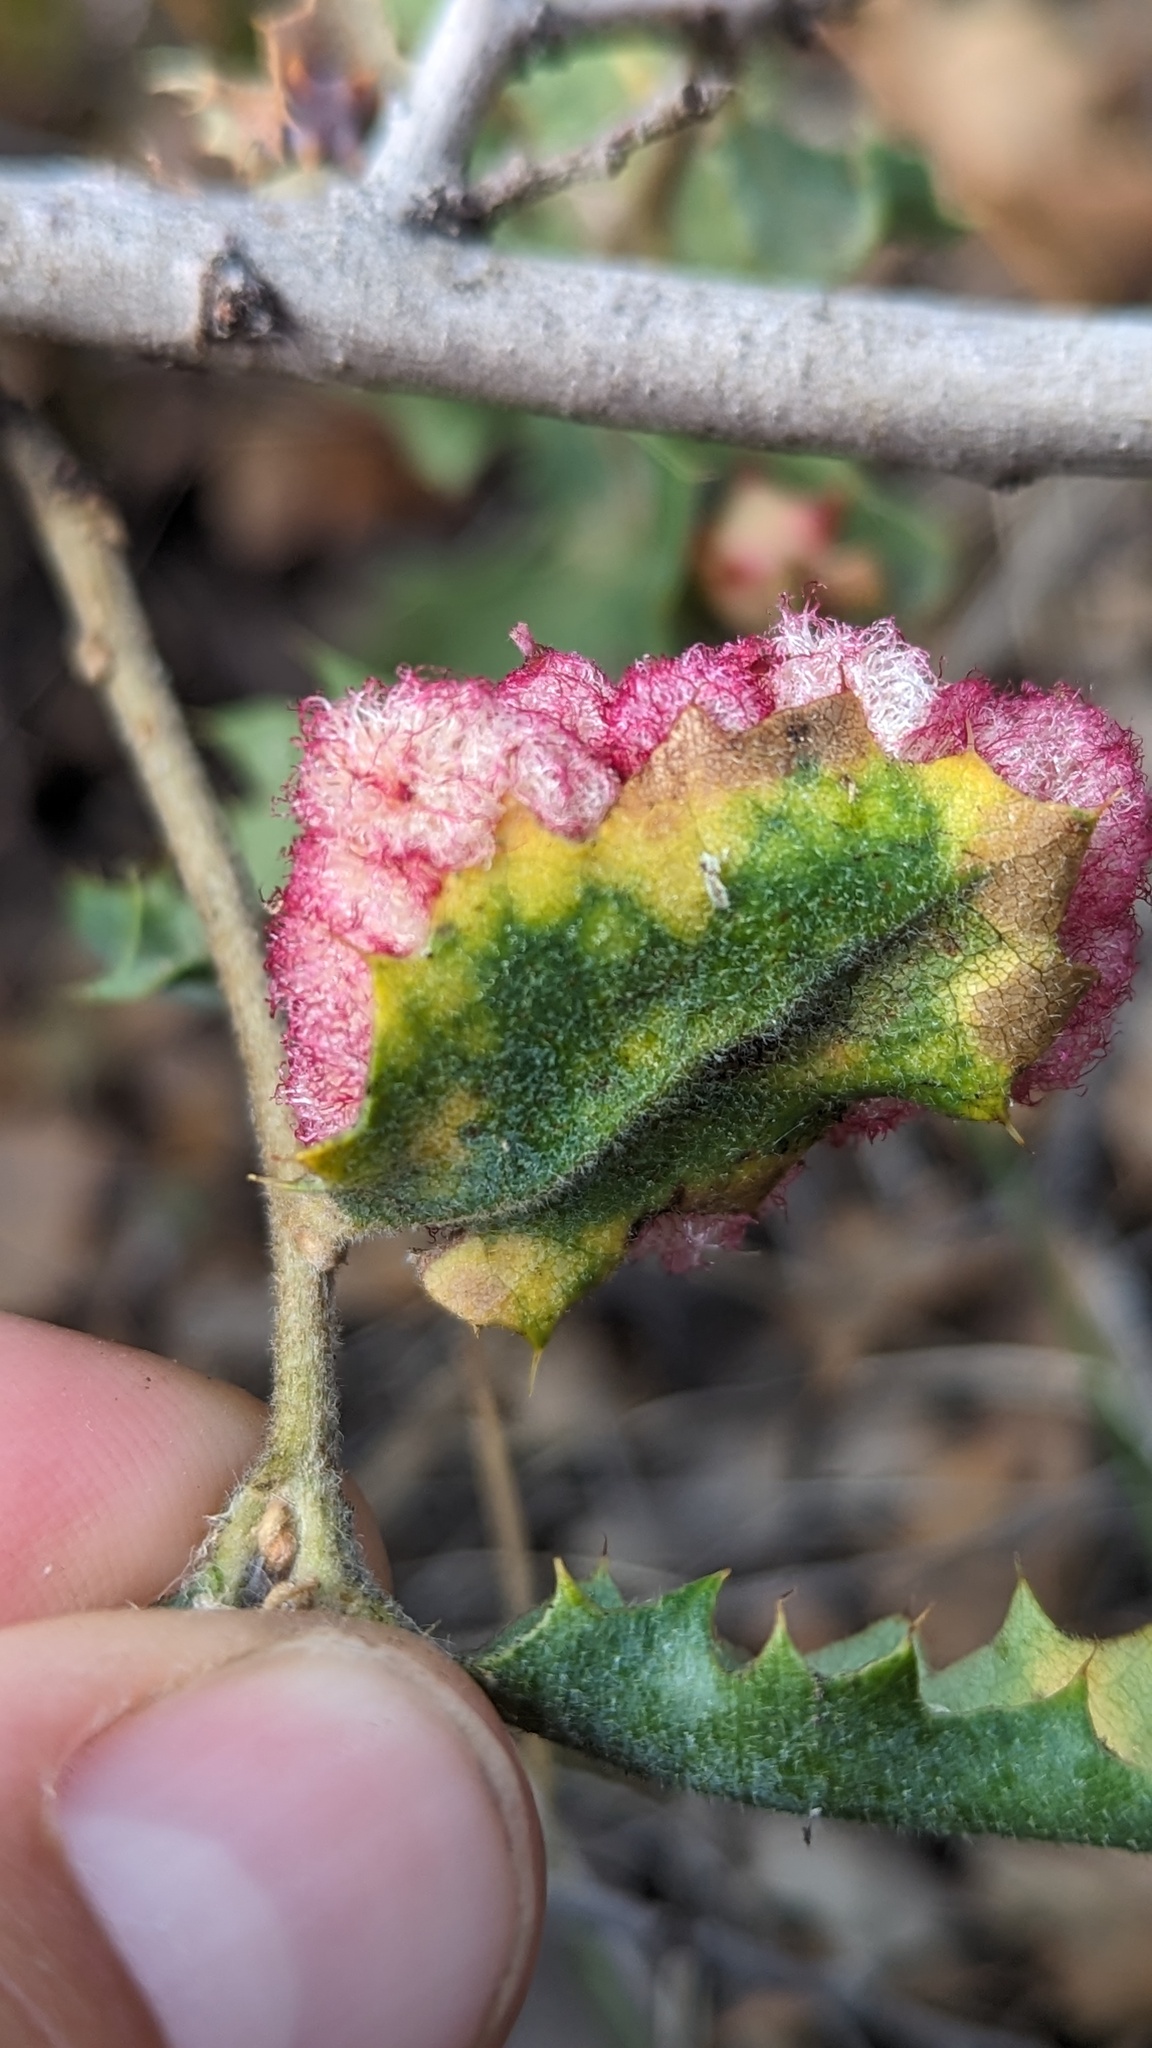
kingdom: Animalia
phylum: Arthropoda
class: Insecta
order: Hymenoptera
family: Cynipidae
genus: Andricus
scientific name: Andricus
